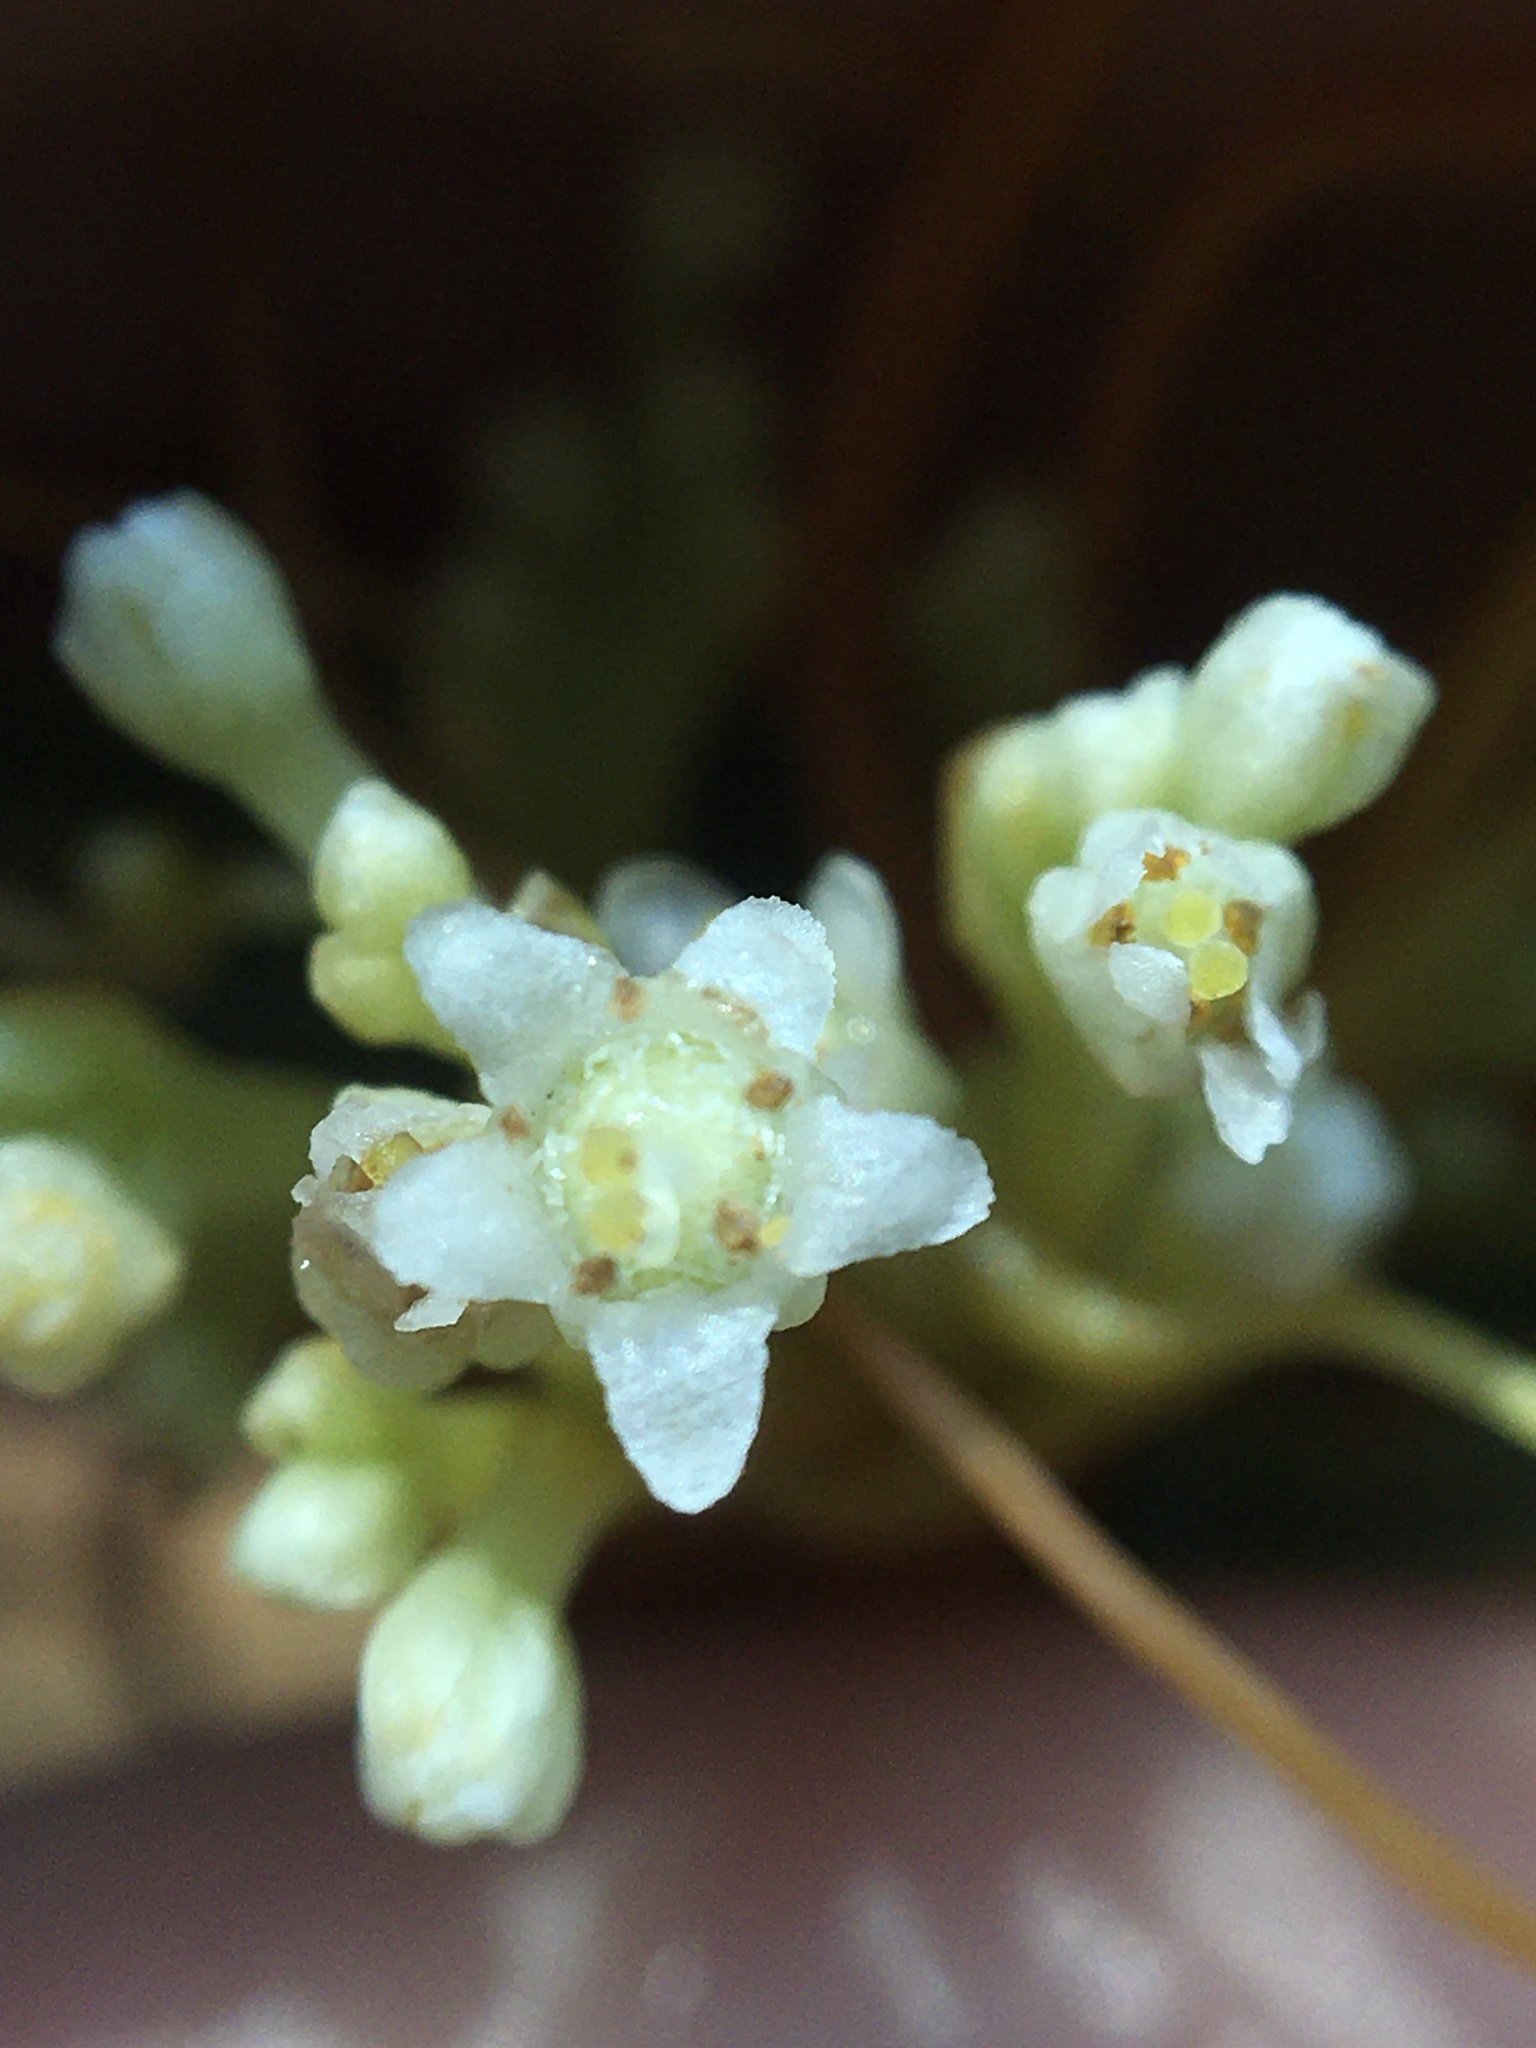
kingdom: Plantae
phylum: Tracheophyta
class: Magnoliopsida
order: Solanales
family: Convolvulaceae
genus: Cuscuta
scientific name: Cuscuta gronovii
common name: Common dodder
